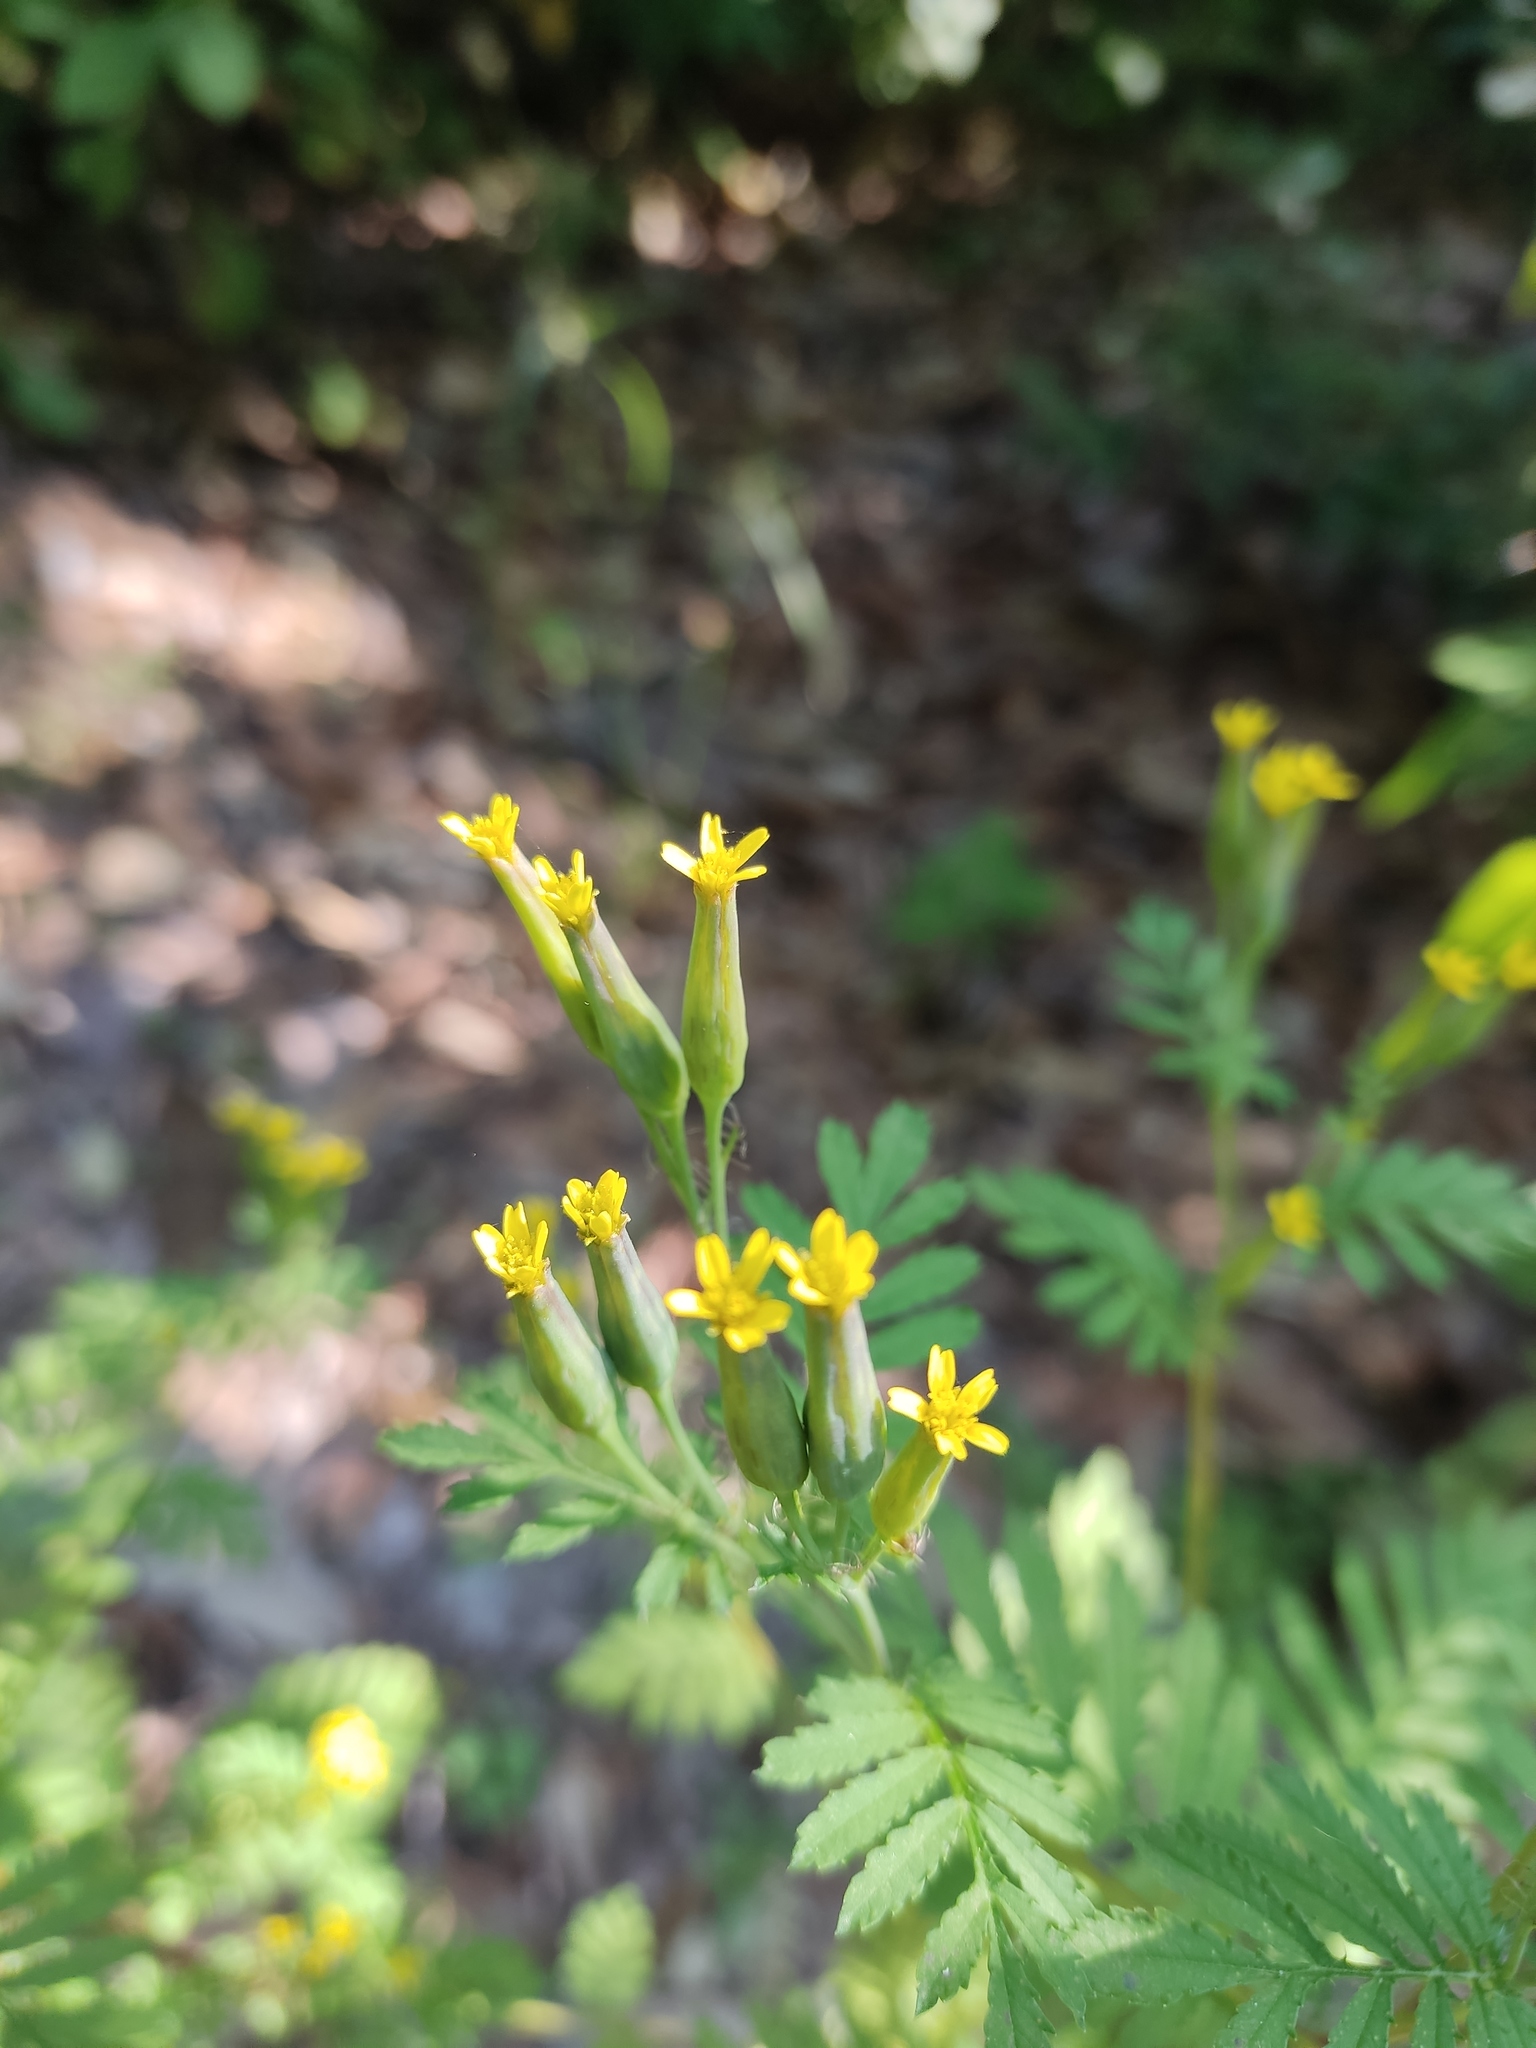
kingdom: Plantae
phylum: Tracheophyta
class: Magnoliopsida
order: Asterales
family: Asteraceae
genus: Tagetes
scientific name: Tagetes foetidissima
